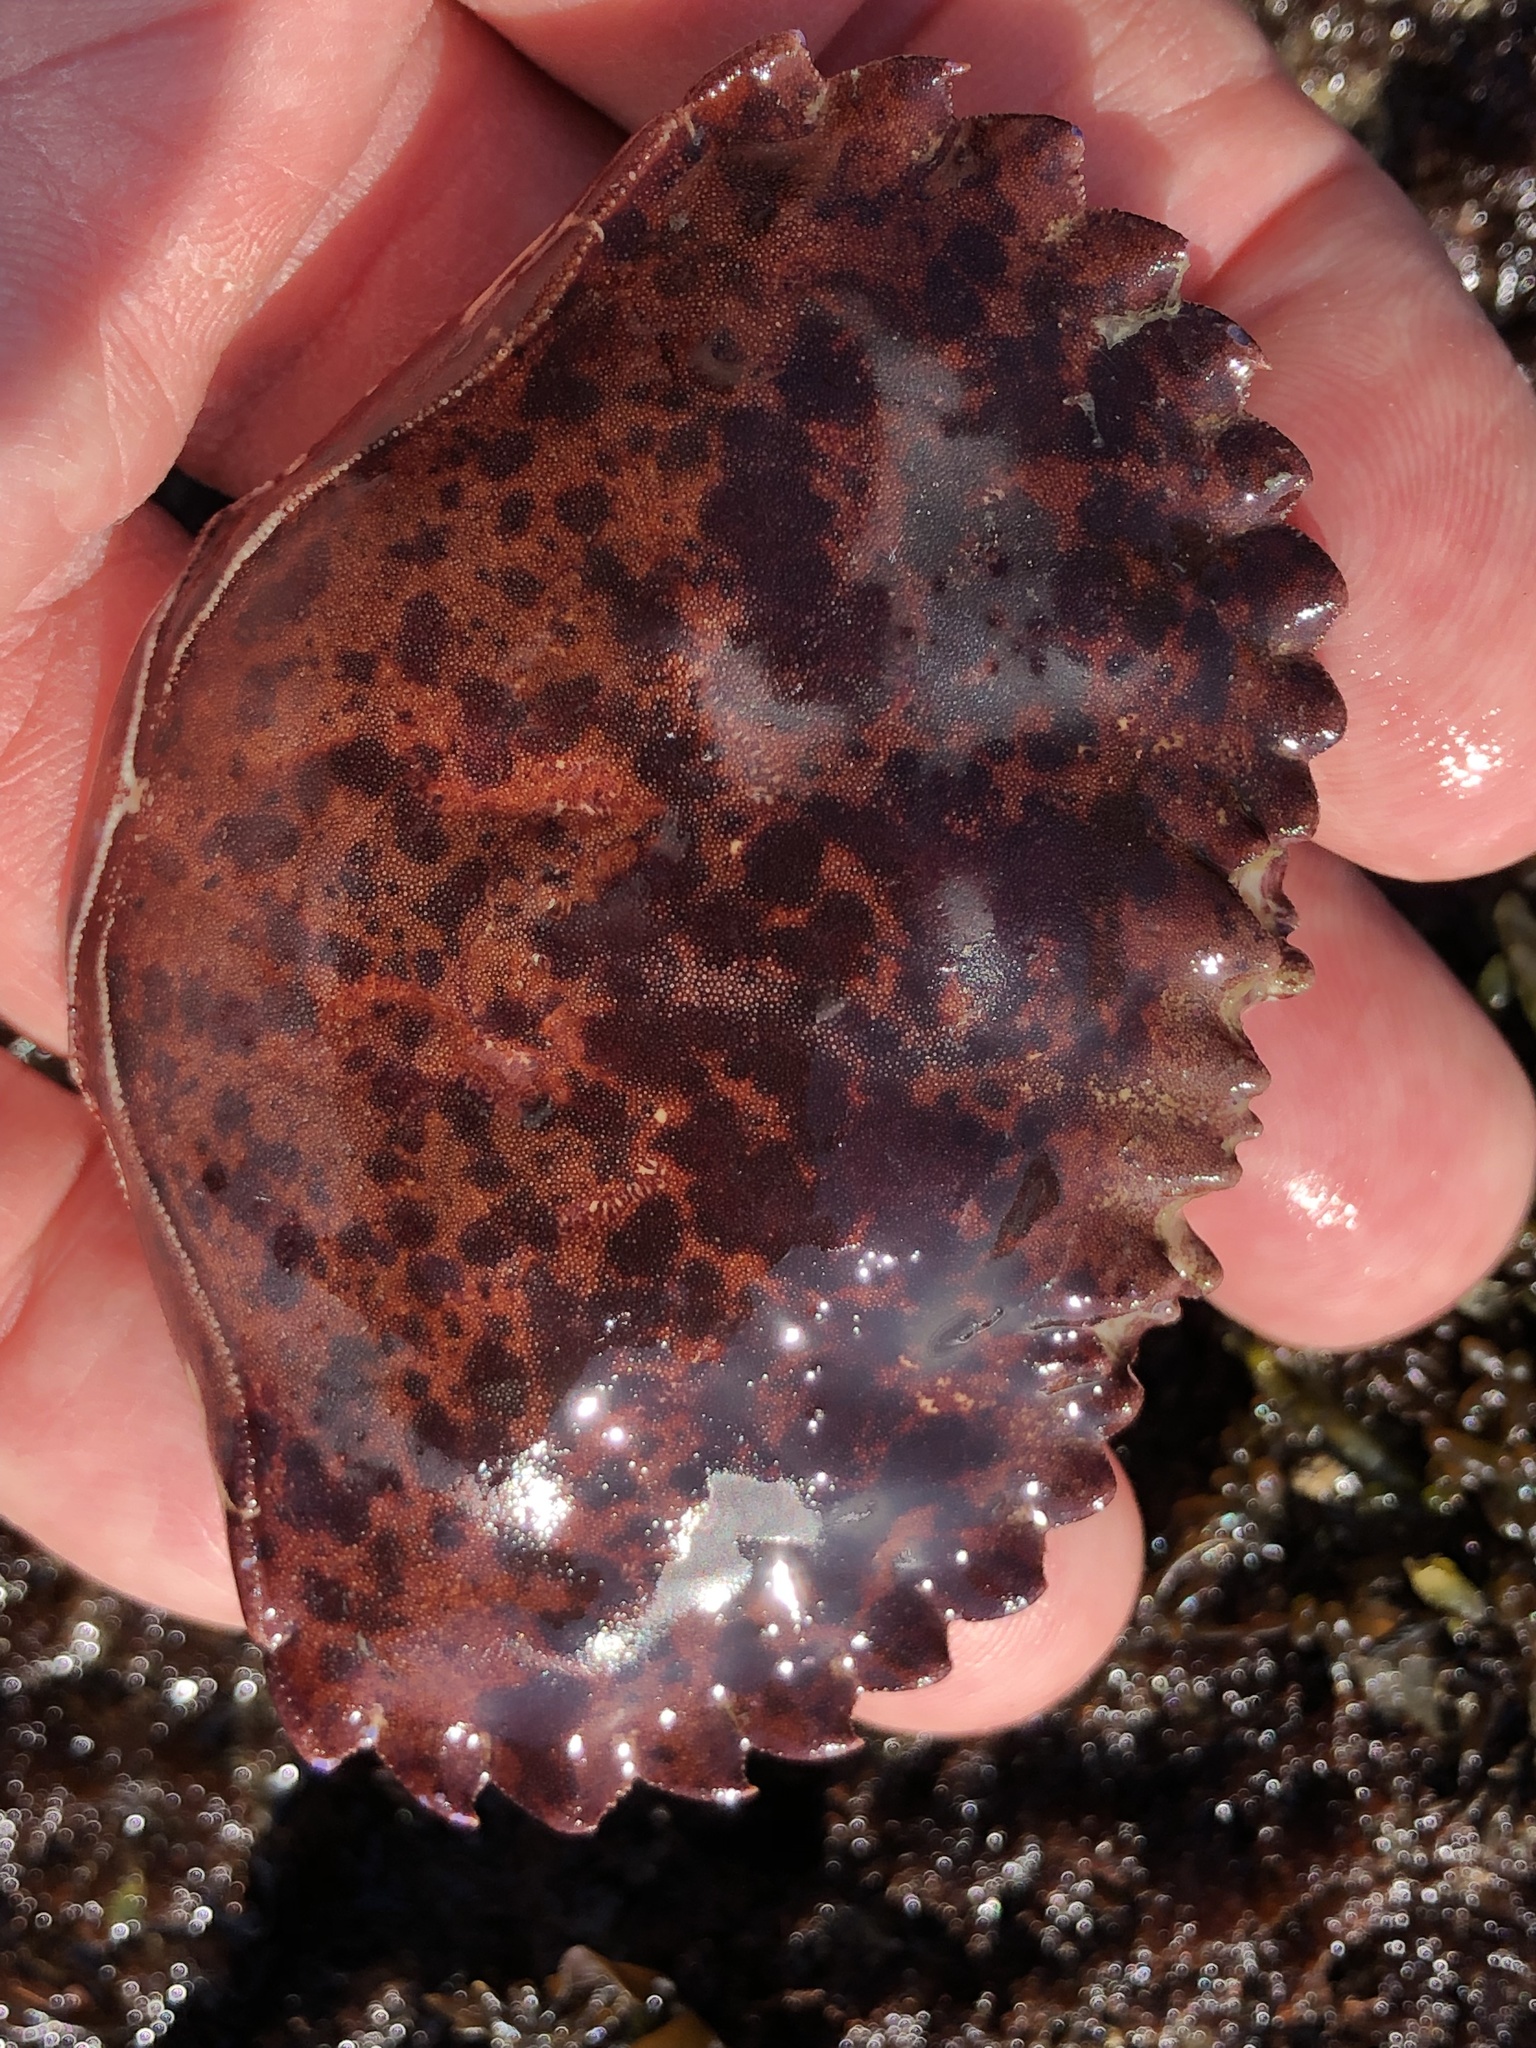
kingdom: Animalia
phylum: Arthropoda
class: Malacostraca
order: Decapoda
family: Cancridae
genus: Romaleon
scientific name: Romaleon antennarium
